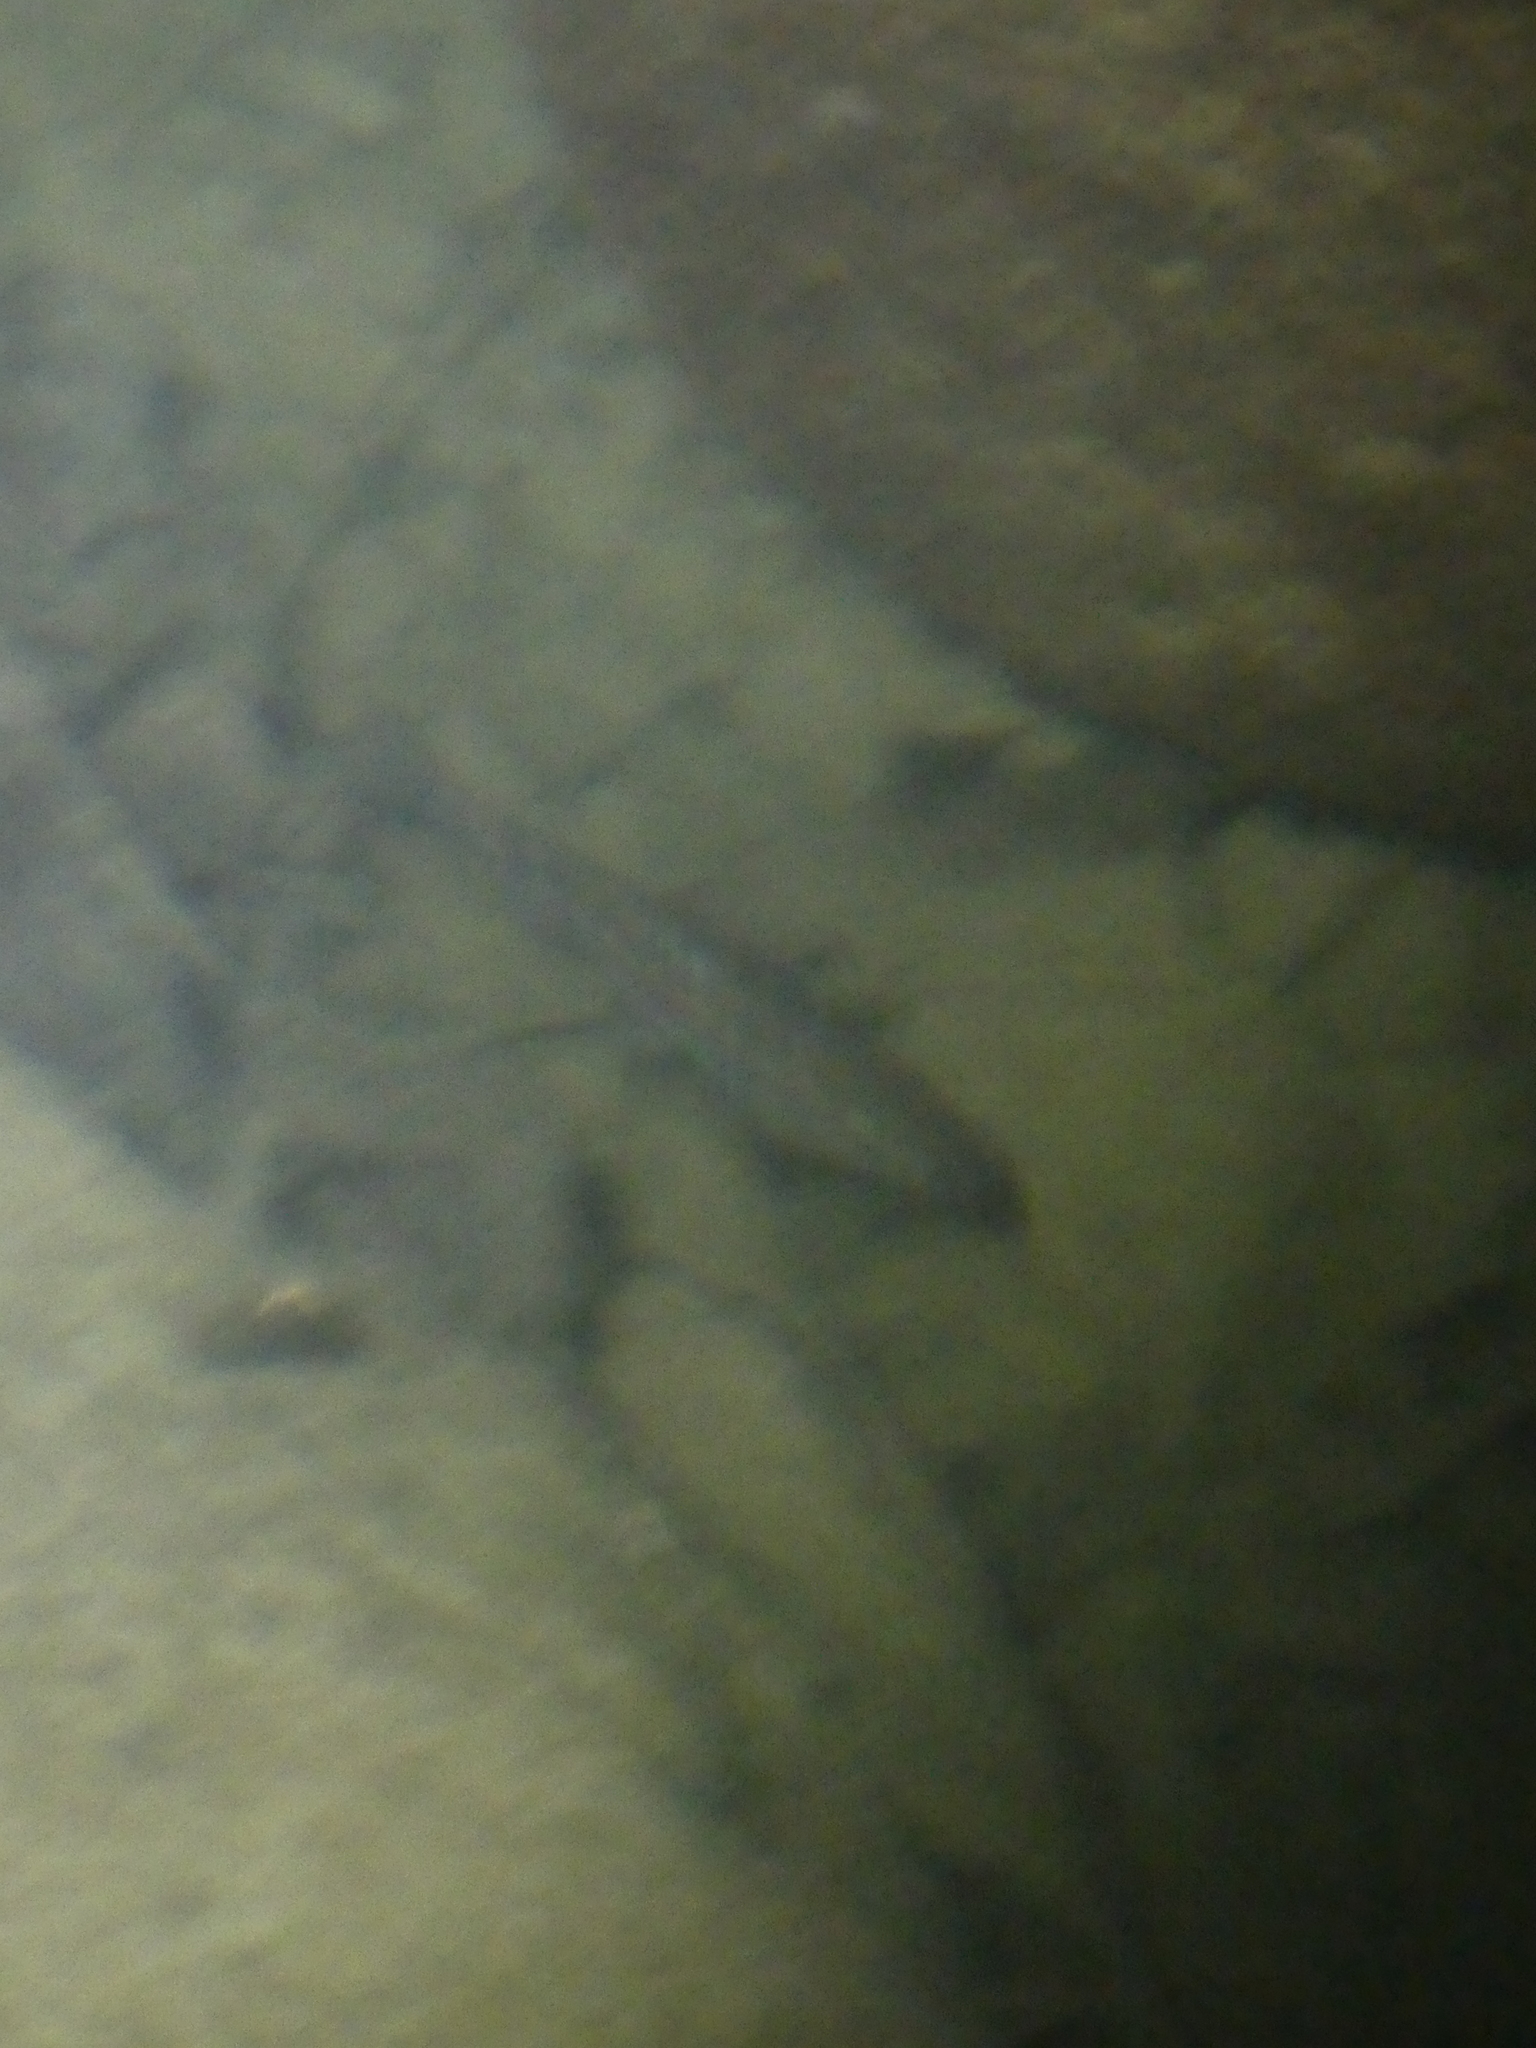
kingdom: Animalia
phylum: Chordata
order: Cypriniformes
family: Cyprinidae
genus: Phoxinus
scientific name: Phoxinus phoxinus
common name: Minnow
